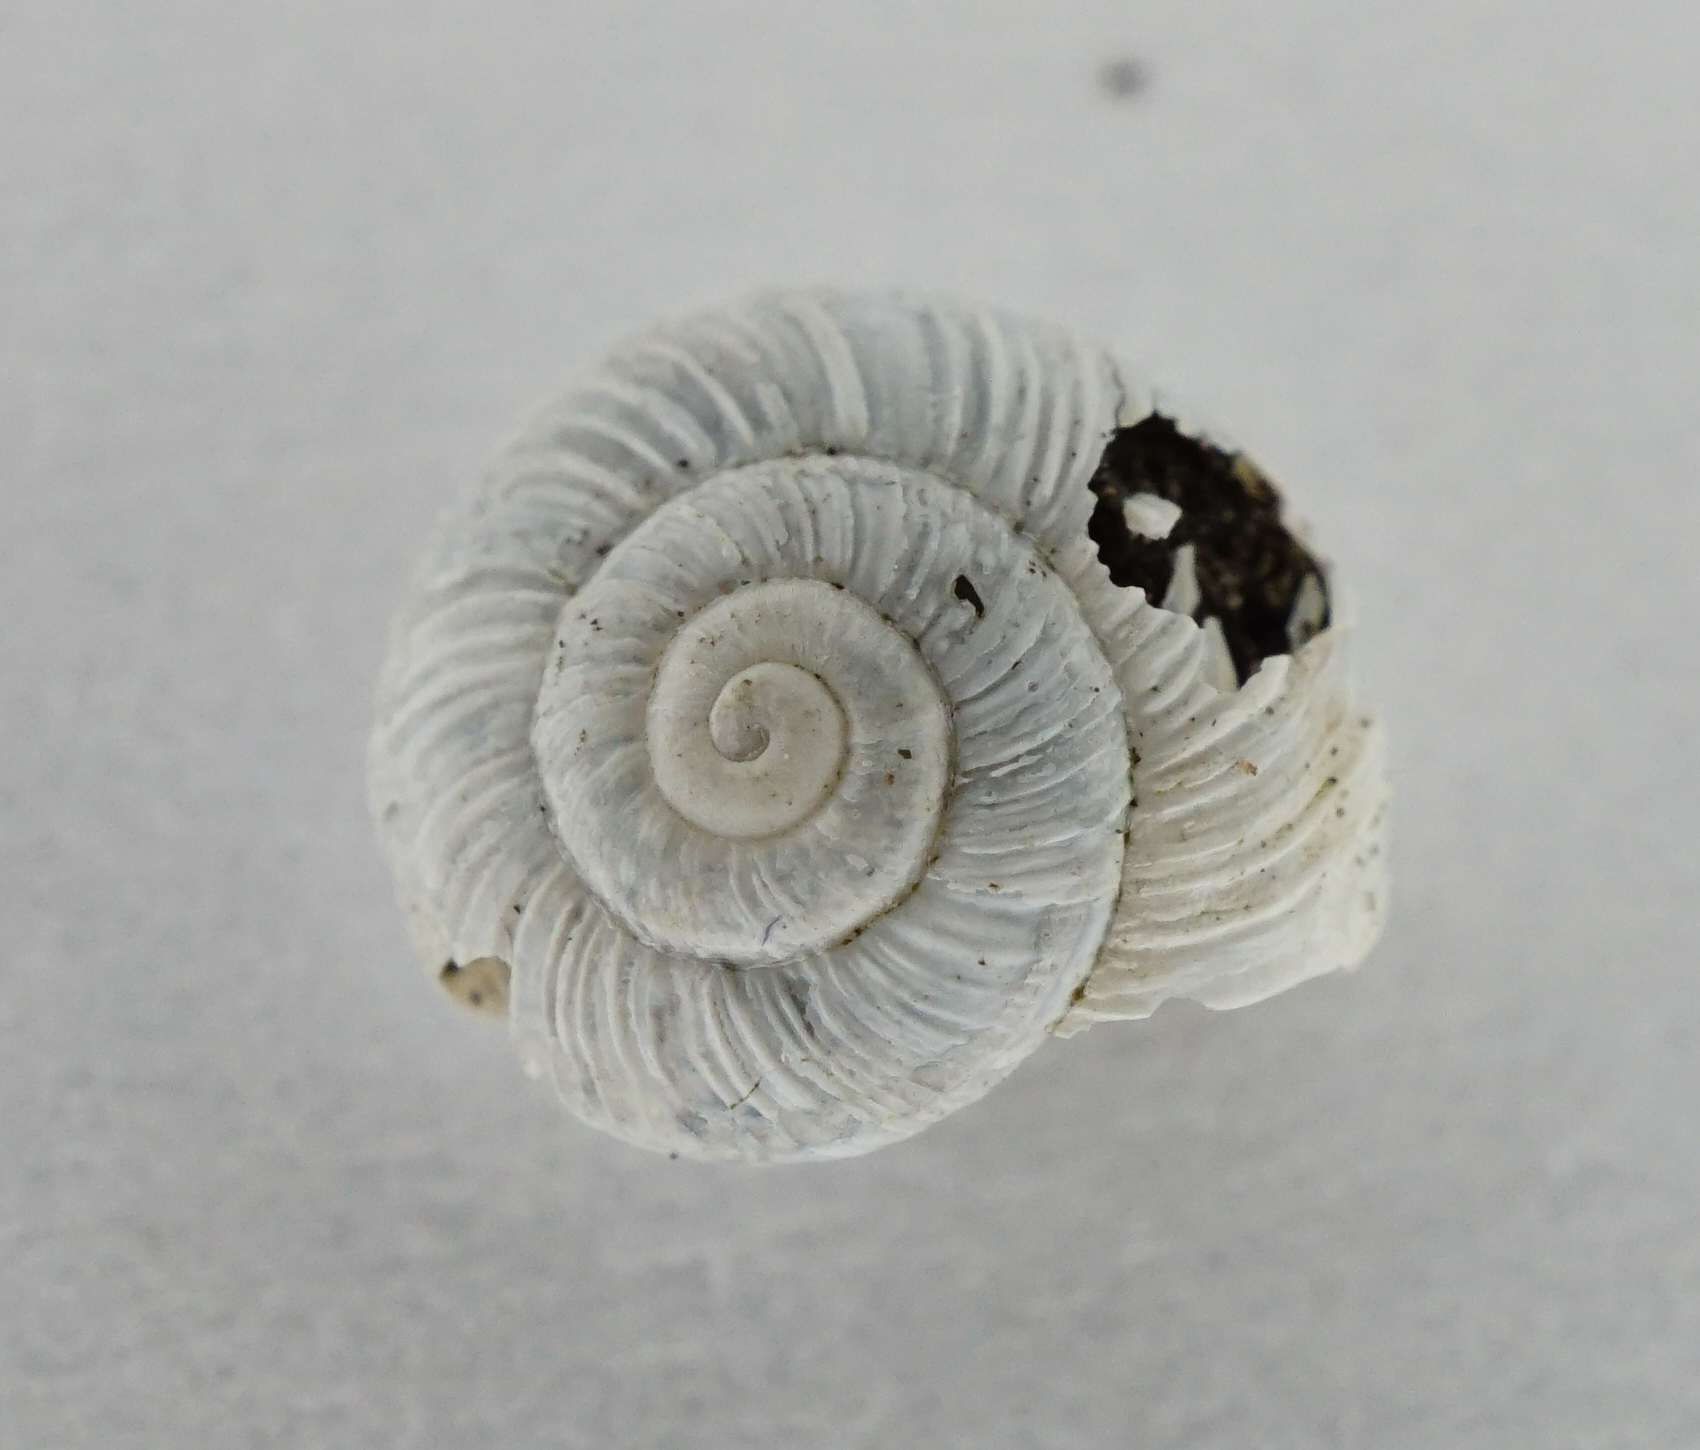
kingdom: Animalia
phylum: Mollusca
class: Gastropoda
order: Stylommatophora
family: Geomitridae
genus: Helicopsis
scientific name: Helicopsis austriaca
